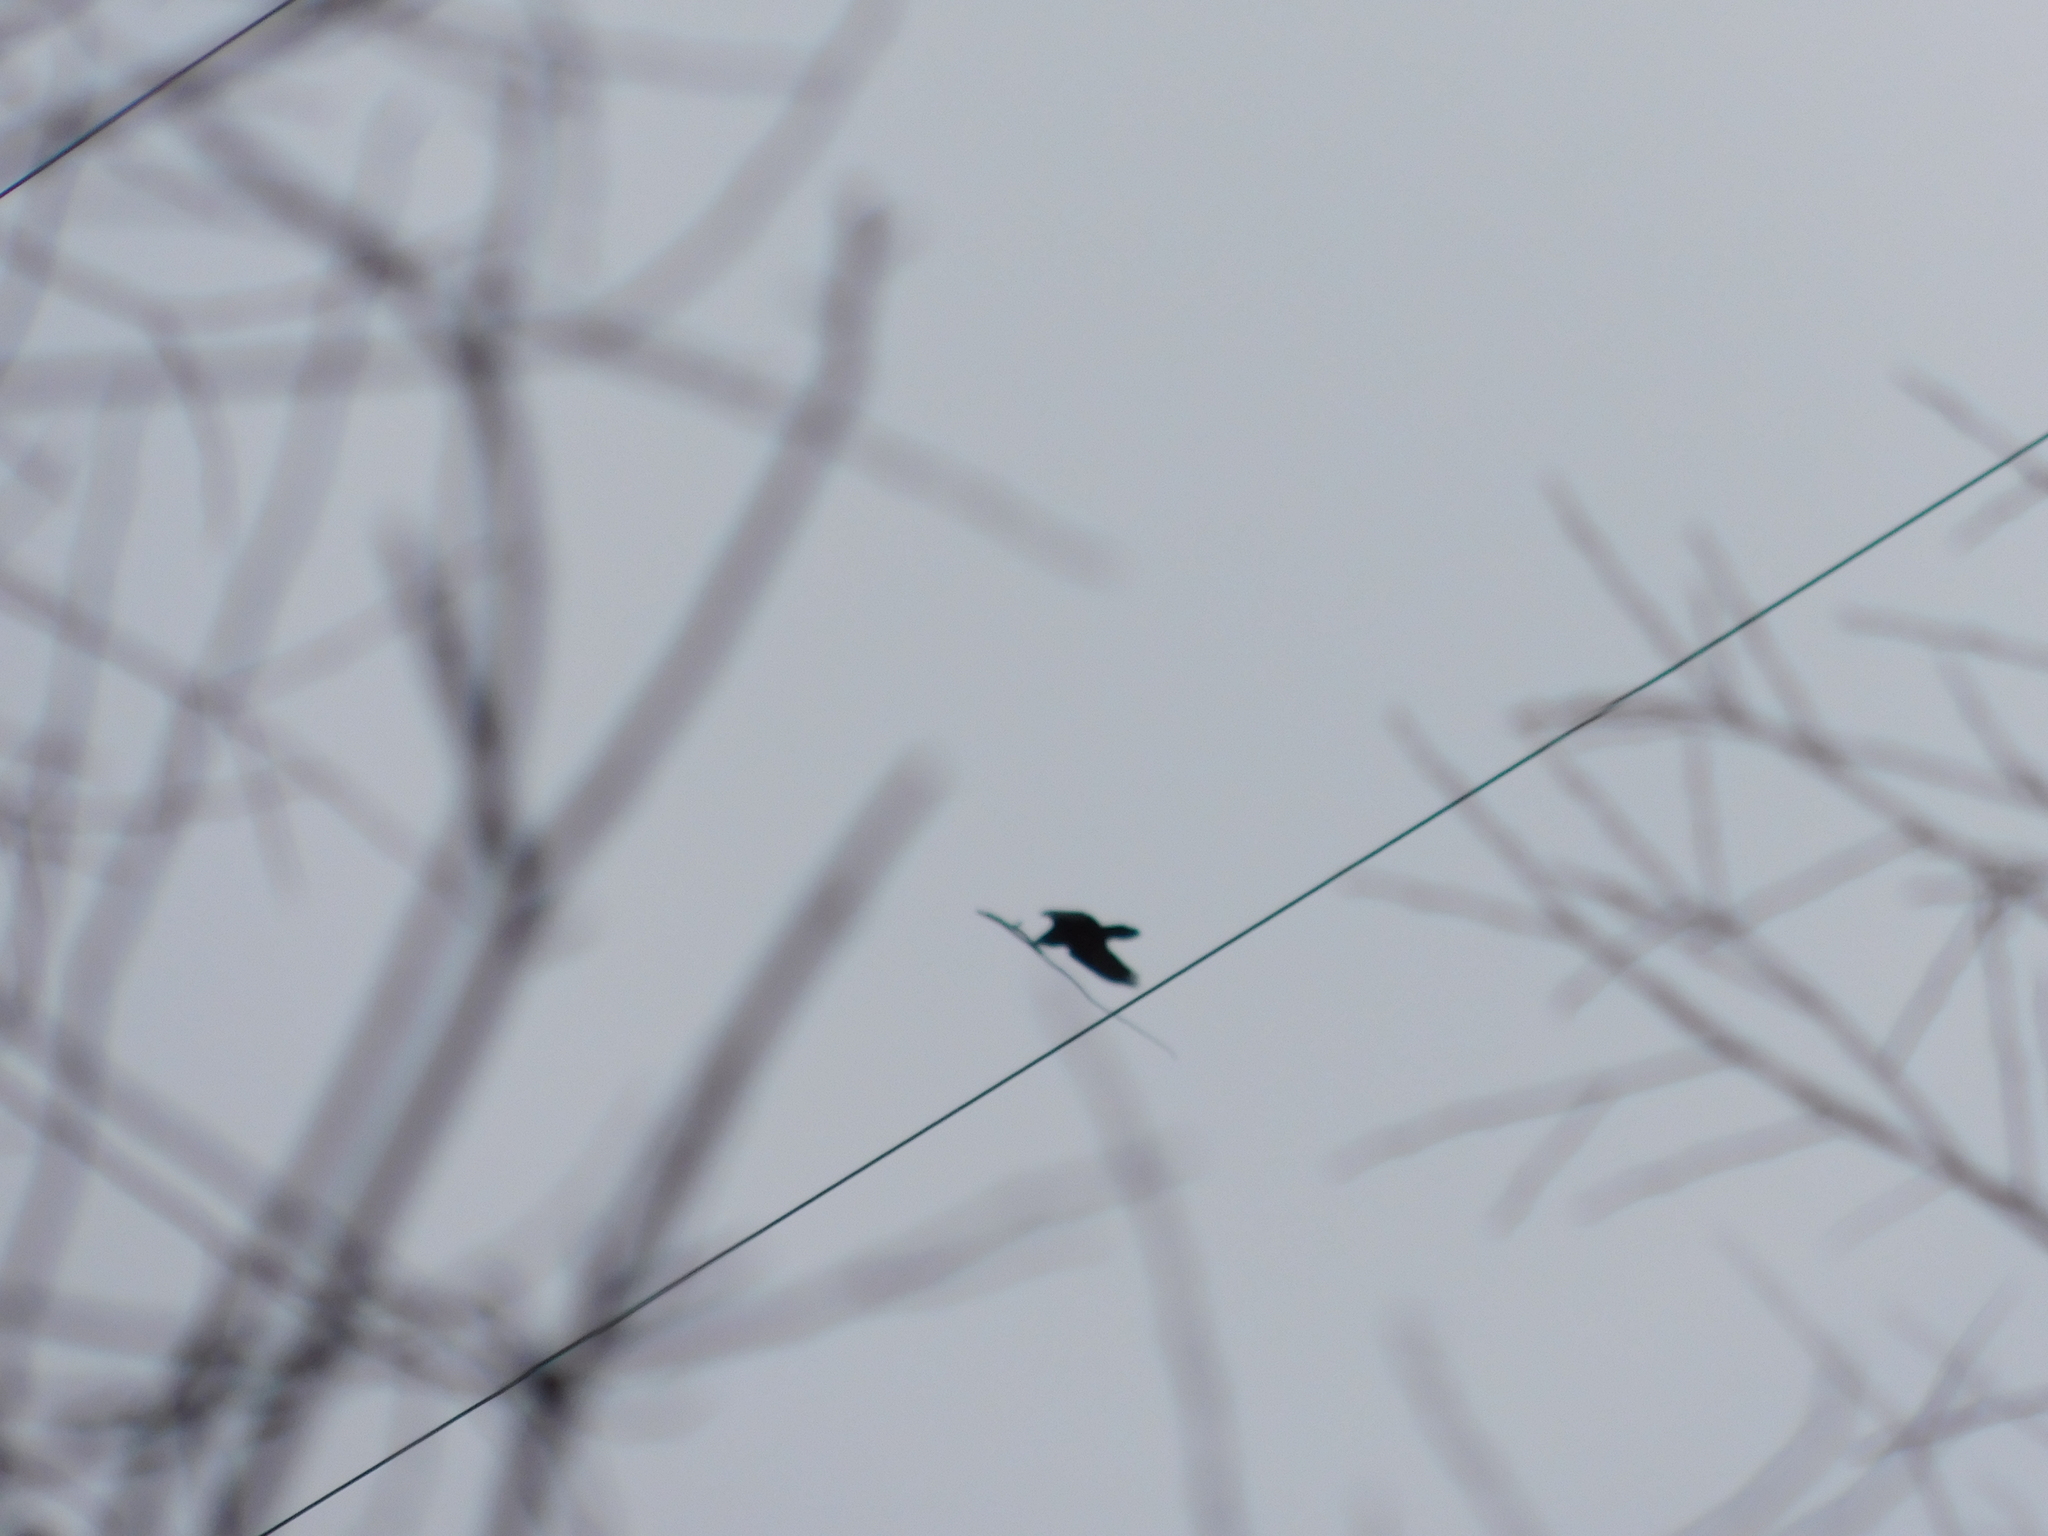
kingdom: Animalia
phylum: Chordata
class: Aves
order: Passeriformes
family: Corvidae
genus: Corvus
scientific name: Corvus corax
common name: Common raven
